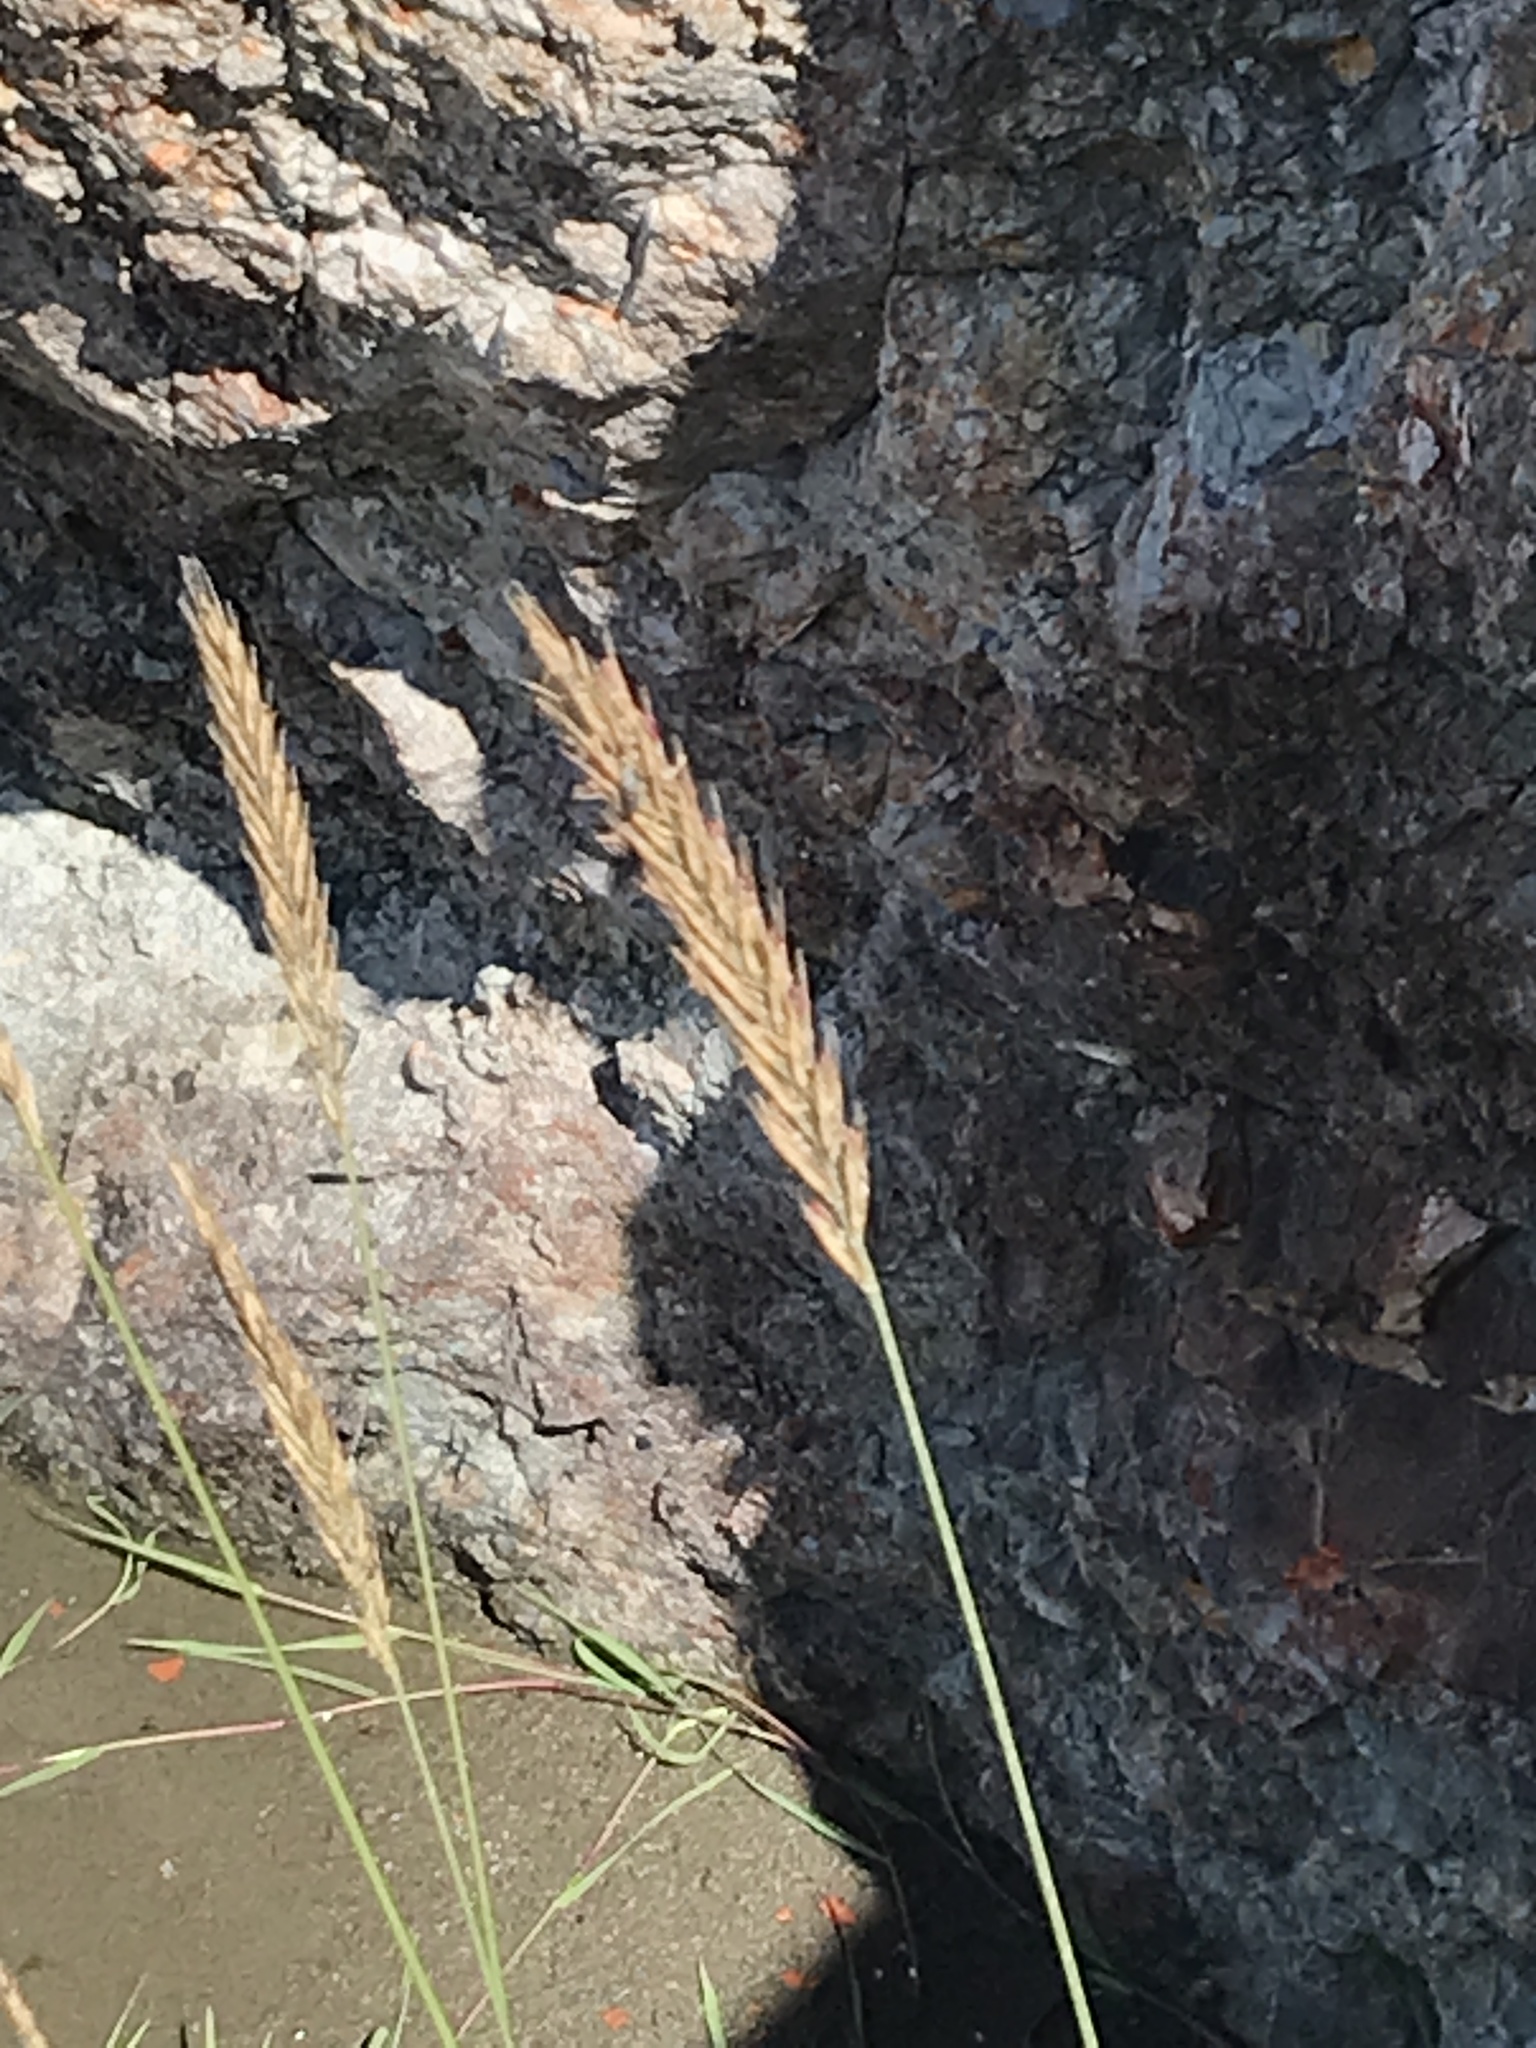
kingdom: Plantae
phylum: Tracheophyta
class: Liliopsida
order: Poales
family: Poaceae
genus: Leymus
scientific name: Leymus mollis
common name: American dune grass
